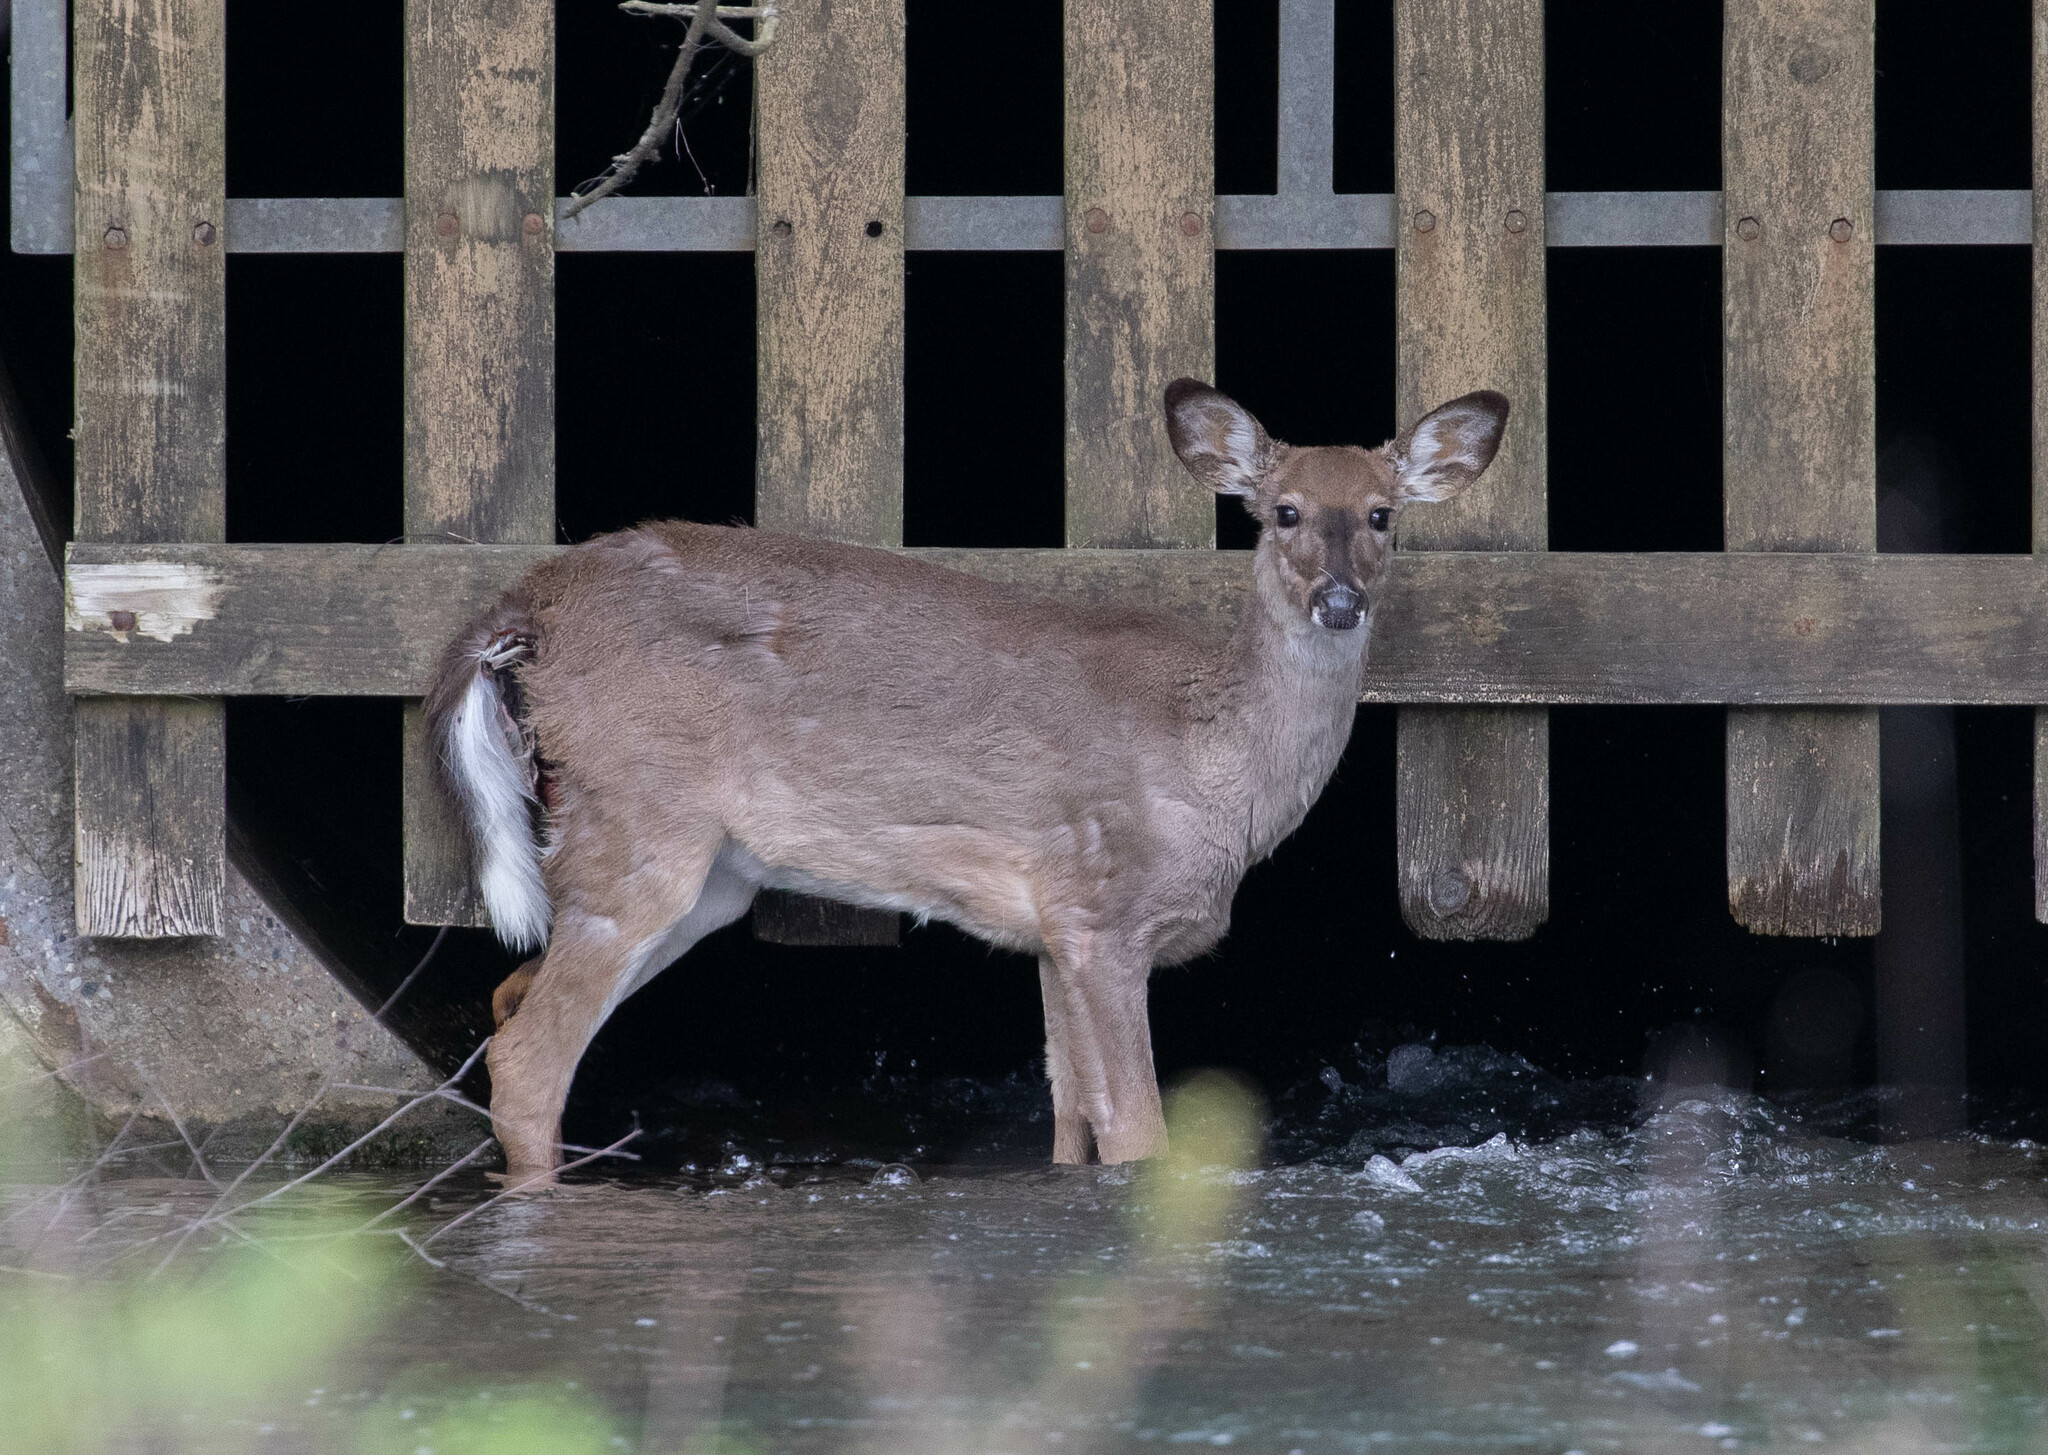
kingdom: Animalia
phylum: Chordata
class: Mammalia
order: Artiodactyla
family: Cervidae
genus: Odocoileus
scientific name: Odocoileus virginianus
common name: White-tailed deer
